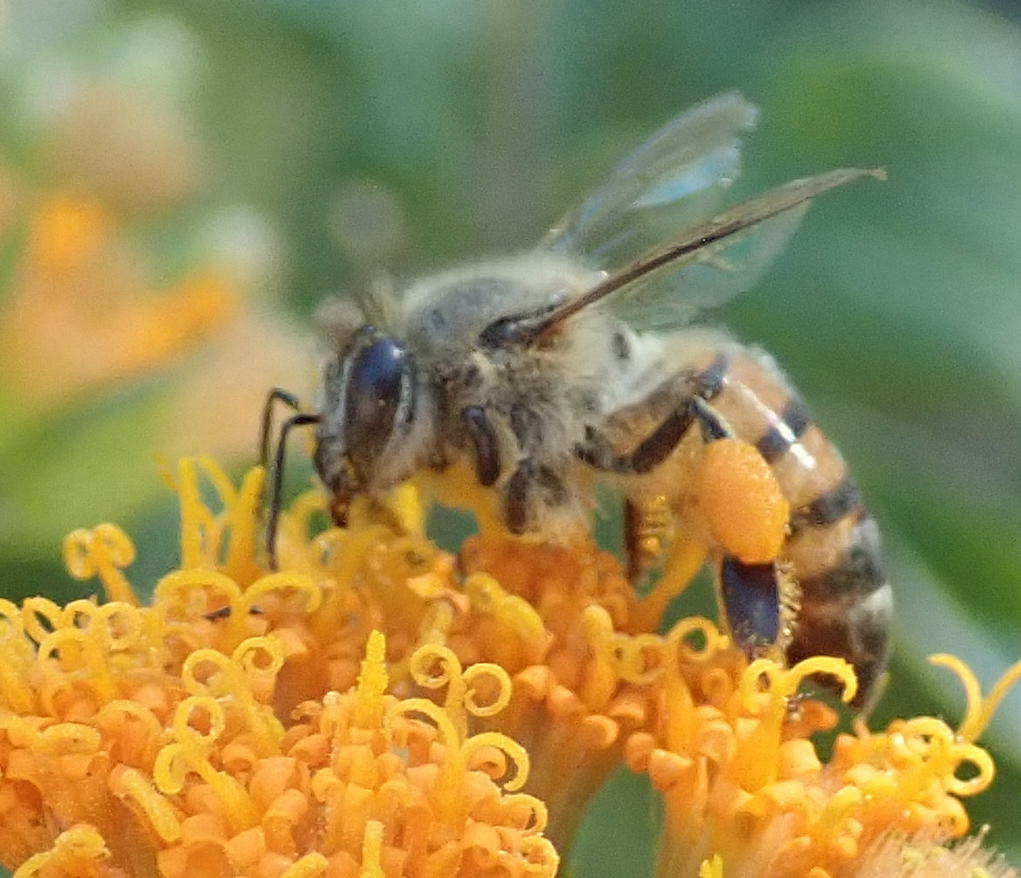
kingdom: Animalia
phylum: Arthropoda
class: Insecta
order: Hymenoptera
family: Apidae
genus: Apis
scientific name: Apis mellifera
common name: Honey bee
